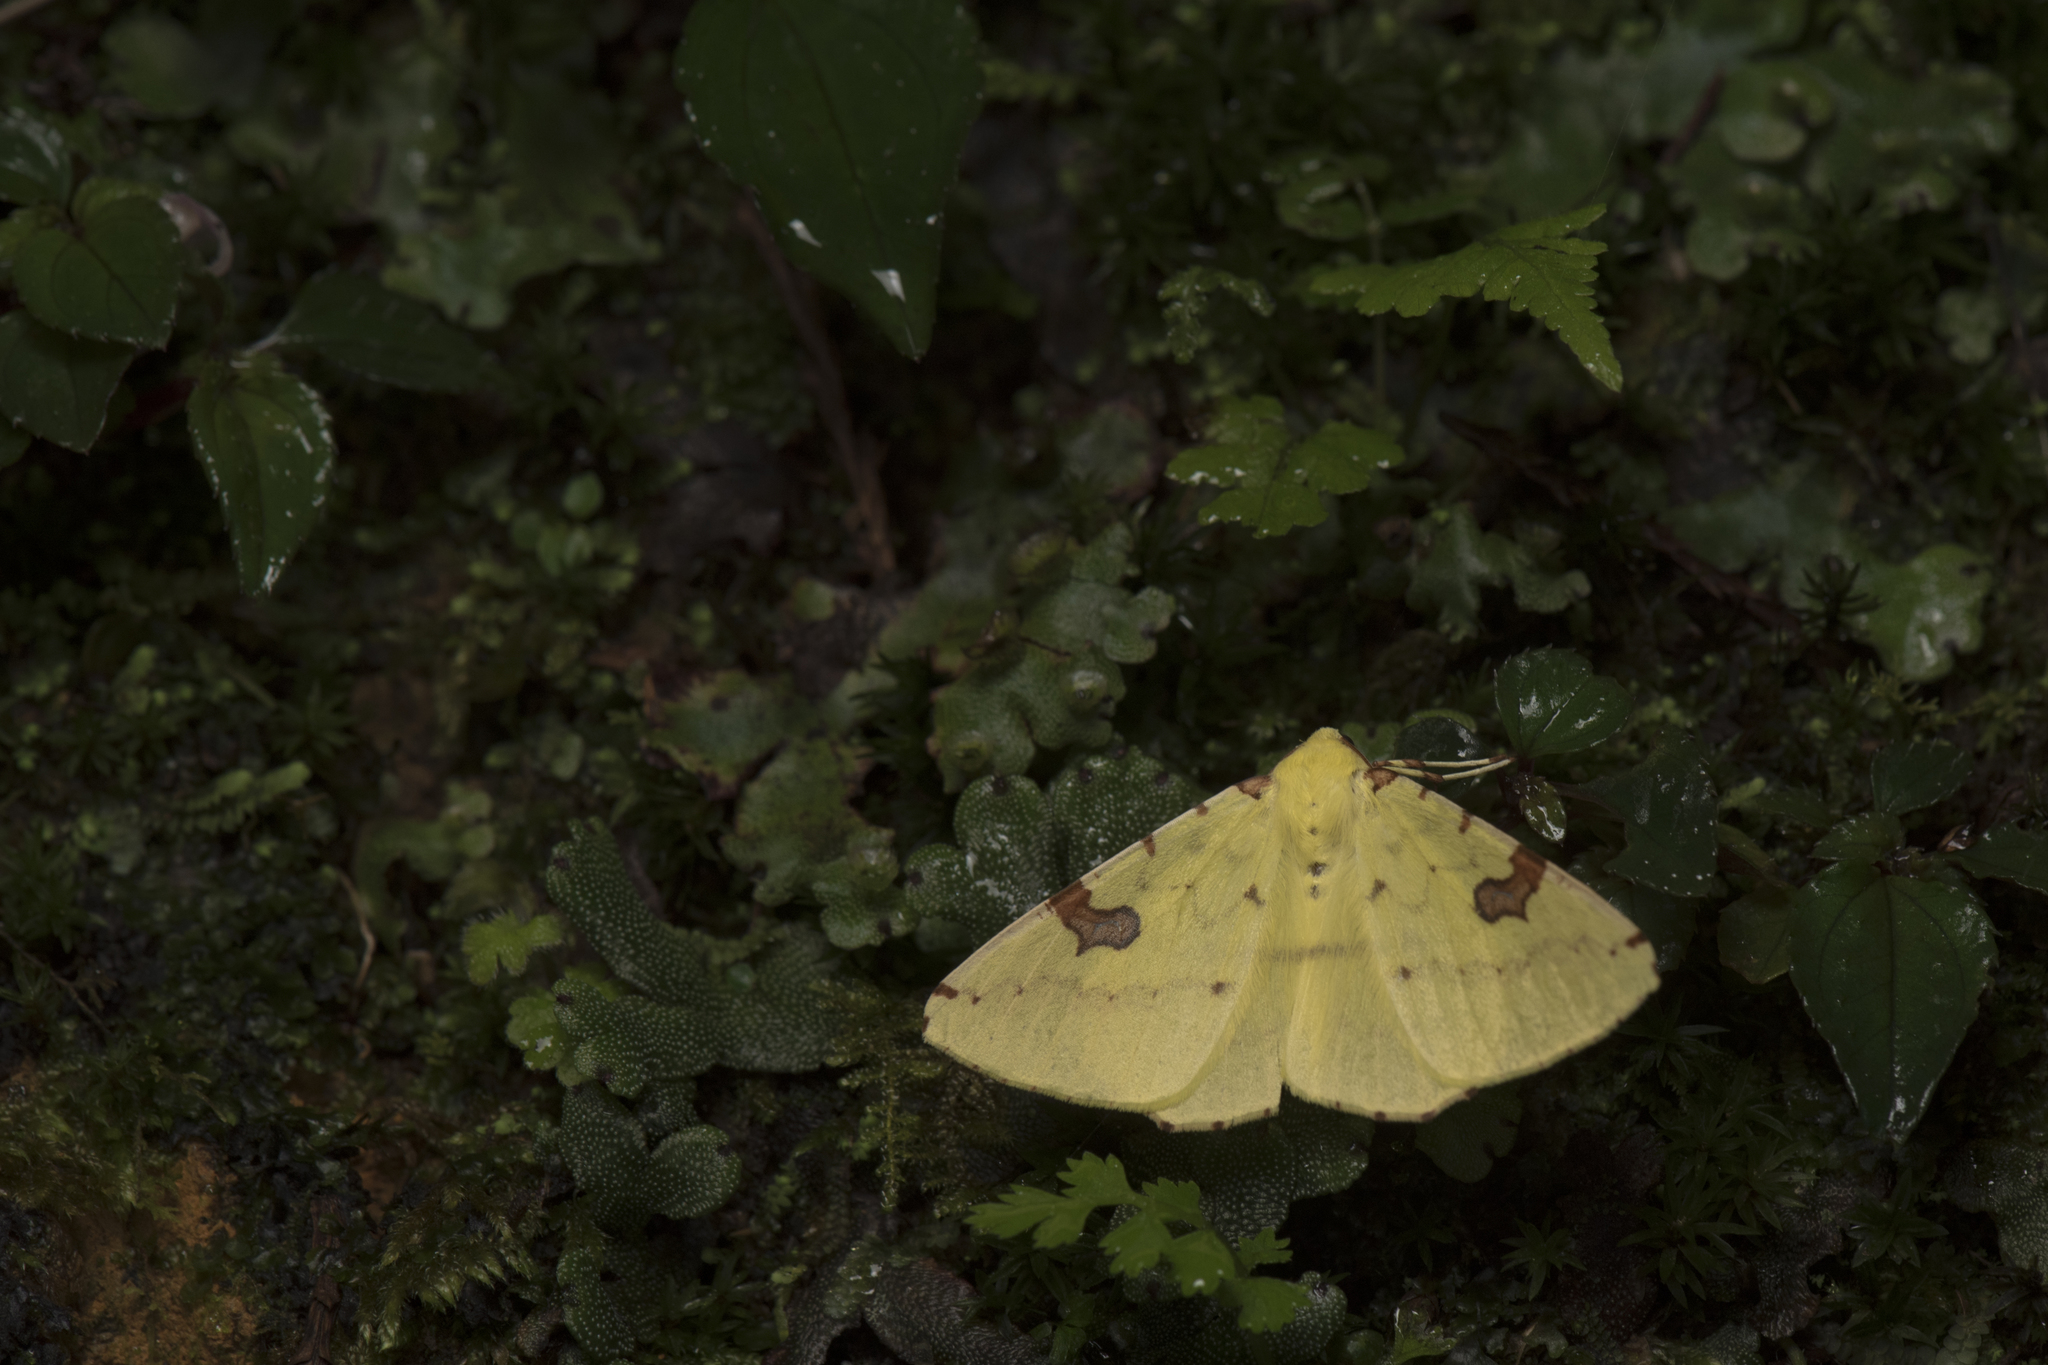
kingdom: Animalia
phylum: Arthropoda
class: Insecta
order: Lepidoptera
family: Geometridae
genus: Opisthograptis
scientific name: Opisthograptis punctilineata
